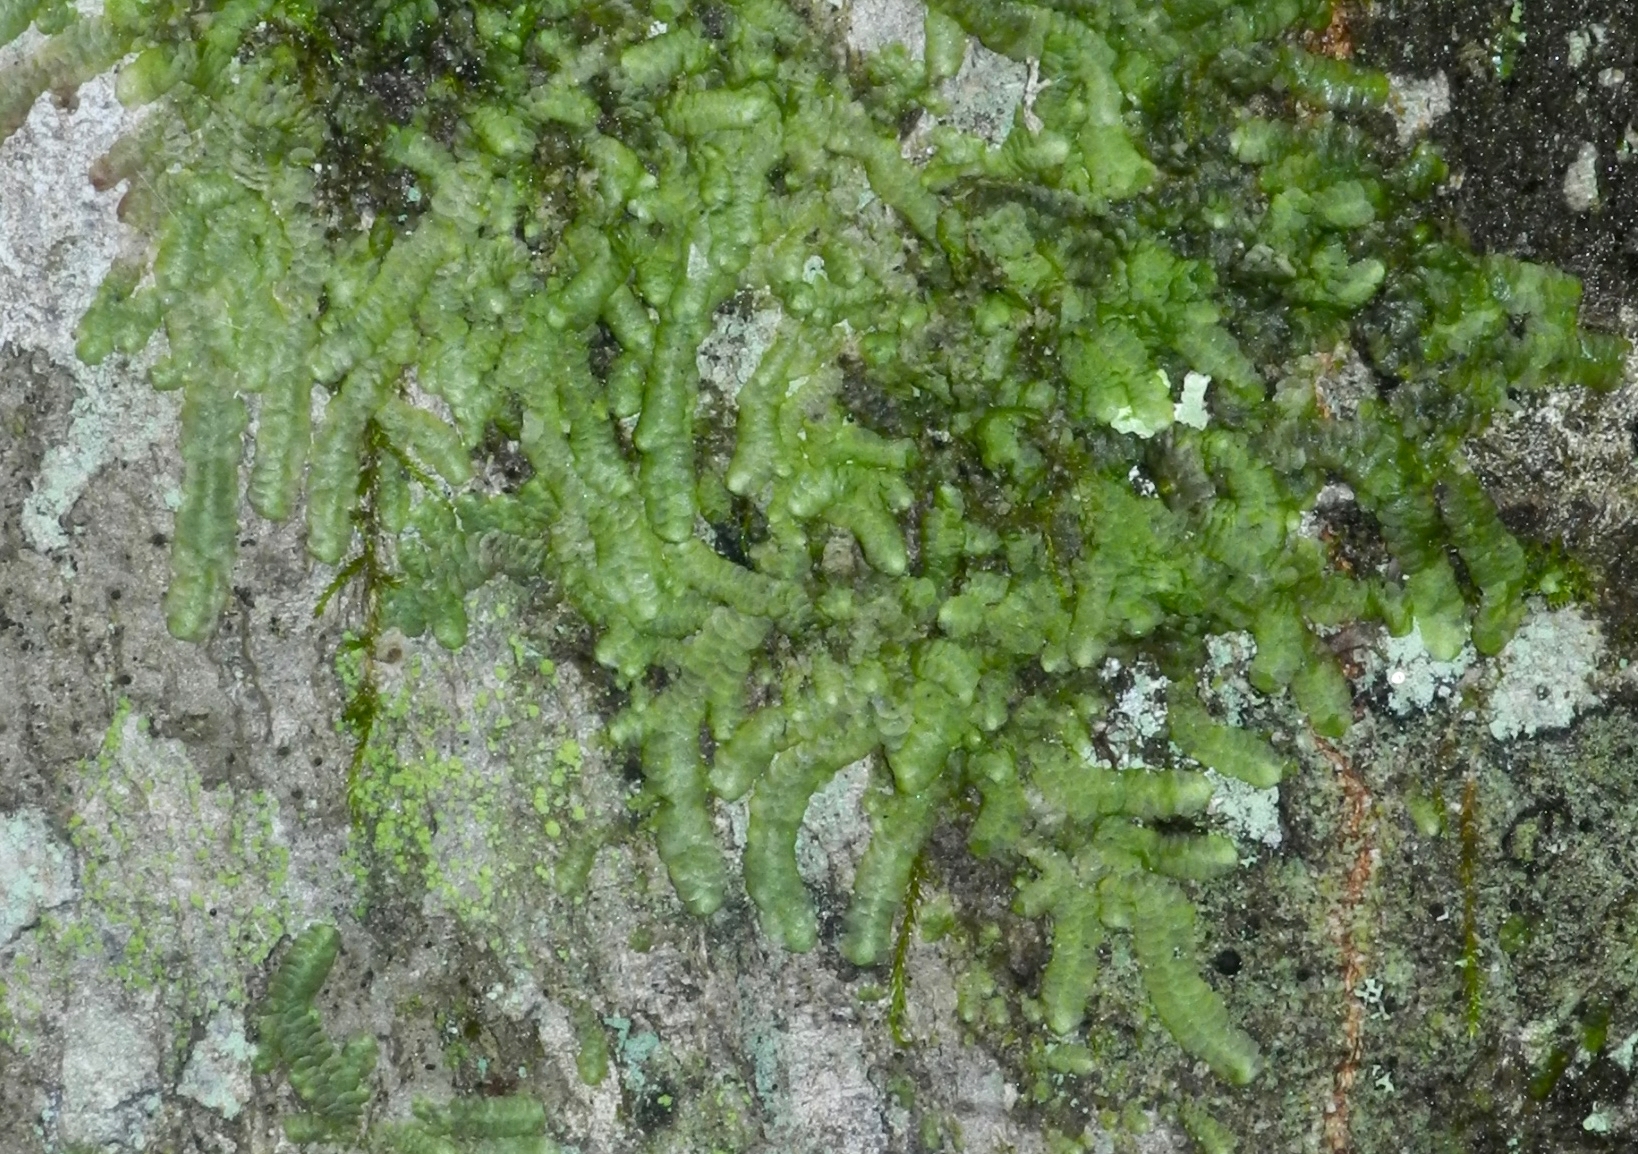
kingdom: Plantae
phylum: Marchantiophyta
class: Jungermanniopsida
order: Porellales
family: Radulaceae
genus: Radula
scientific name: Radula complanata
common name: Flat-leaved scalewort
